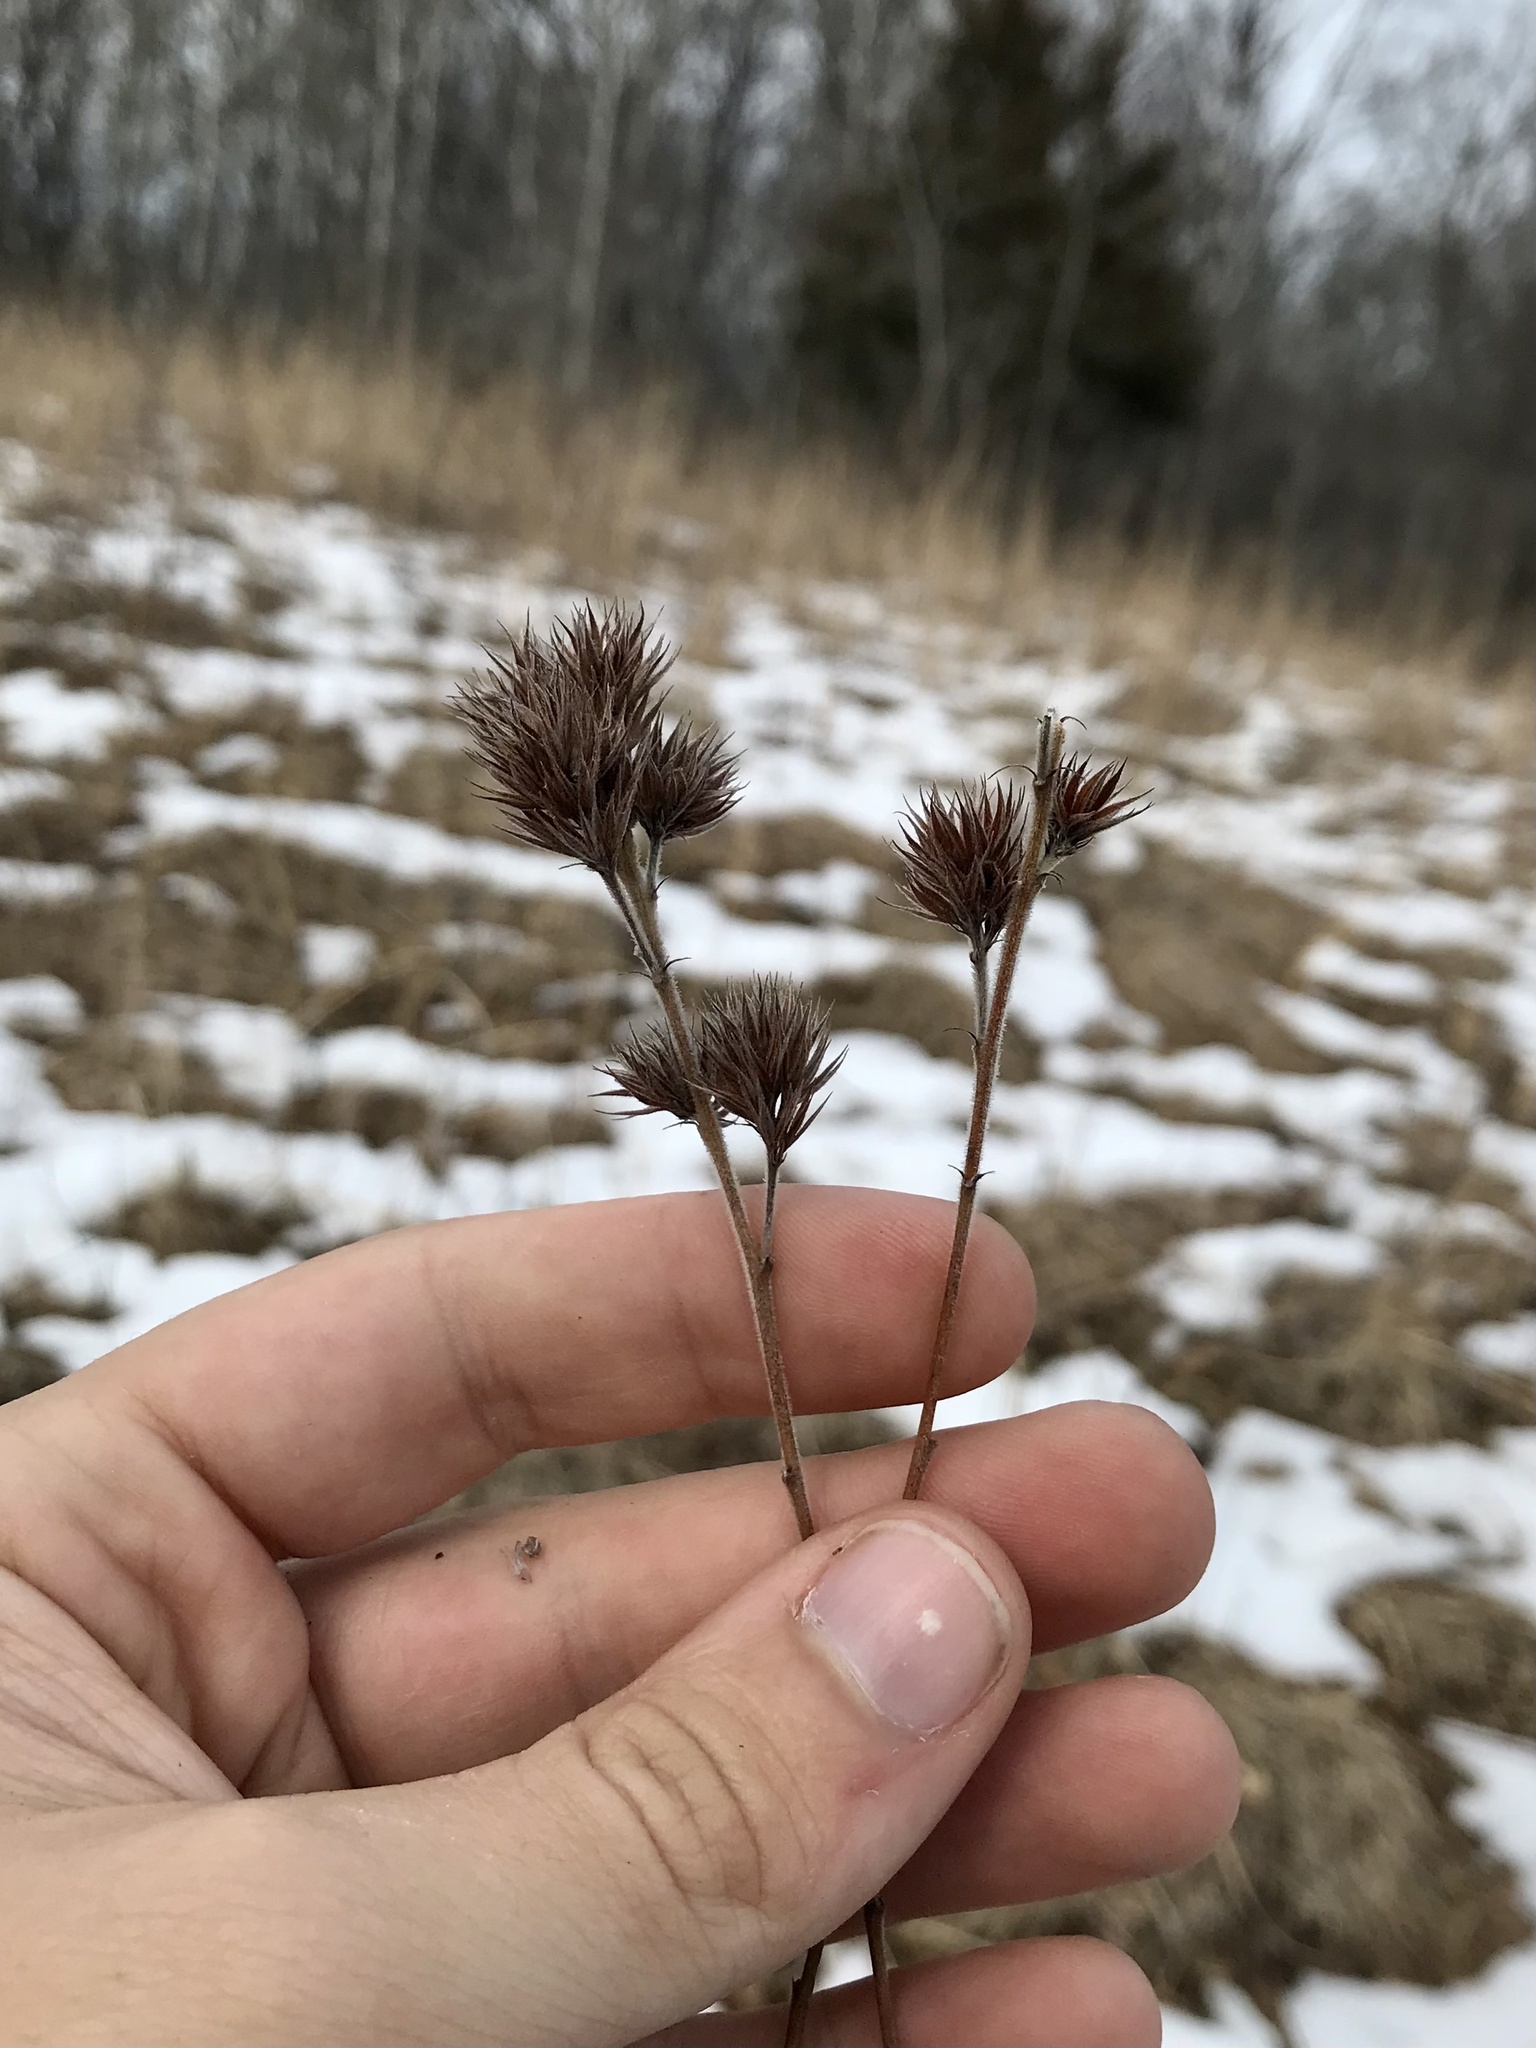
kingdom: Plantae
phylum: Tracheophyta
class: Magnoliopsida
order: Fabales
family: Fabaceae
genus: Lespedeza
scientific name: Lespedeza capitata
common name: Dusty clover
